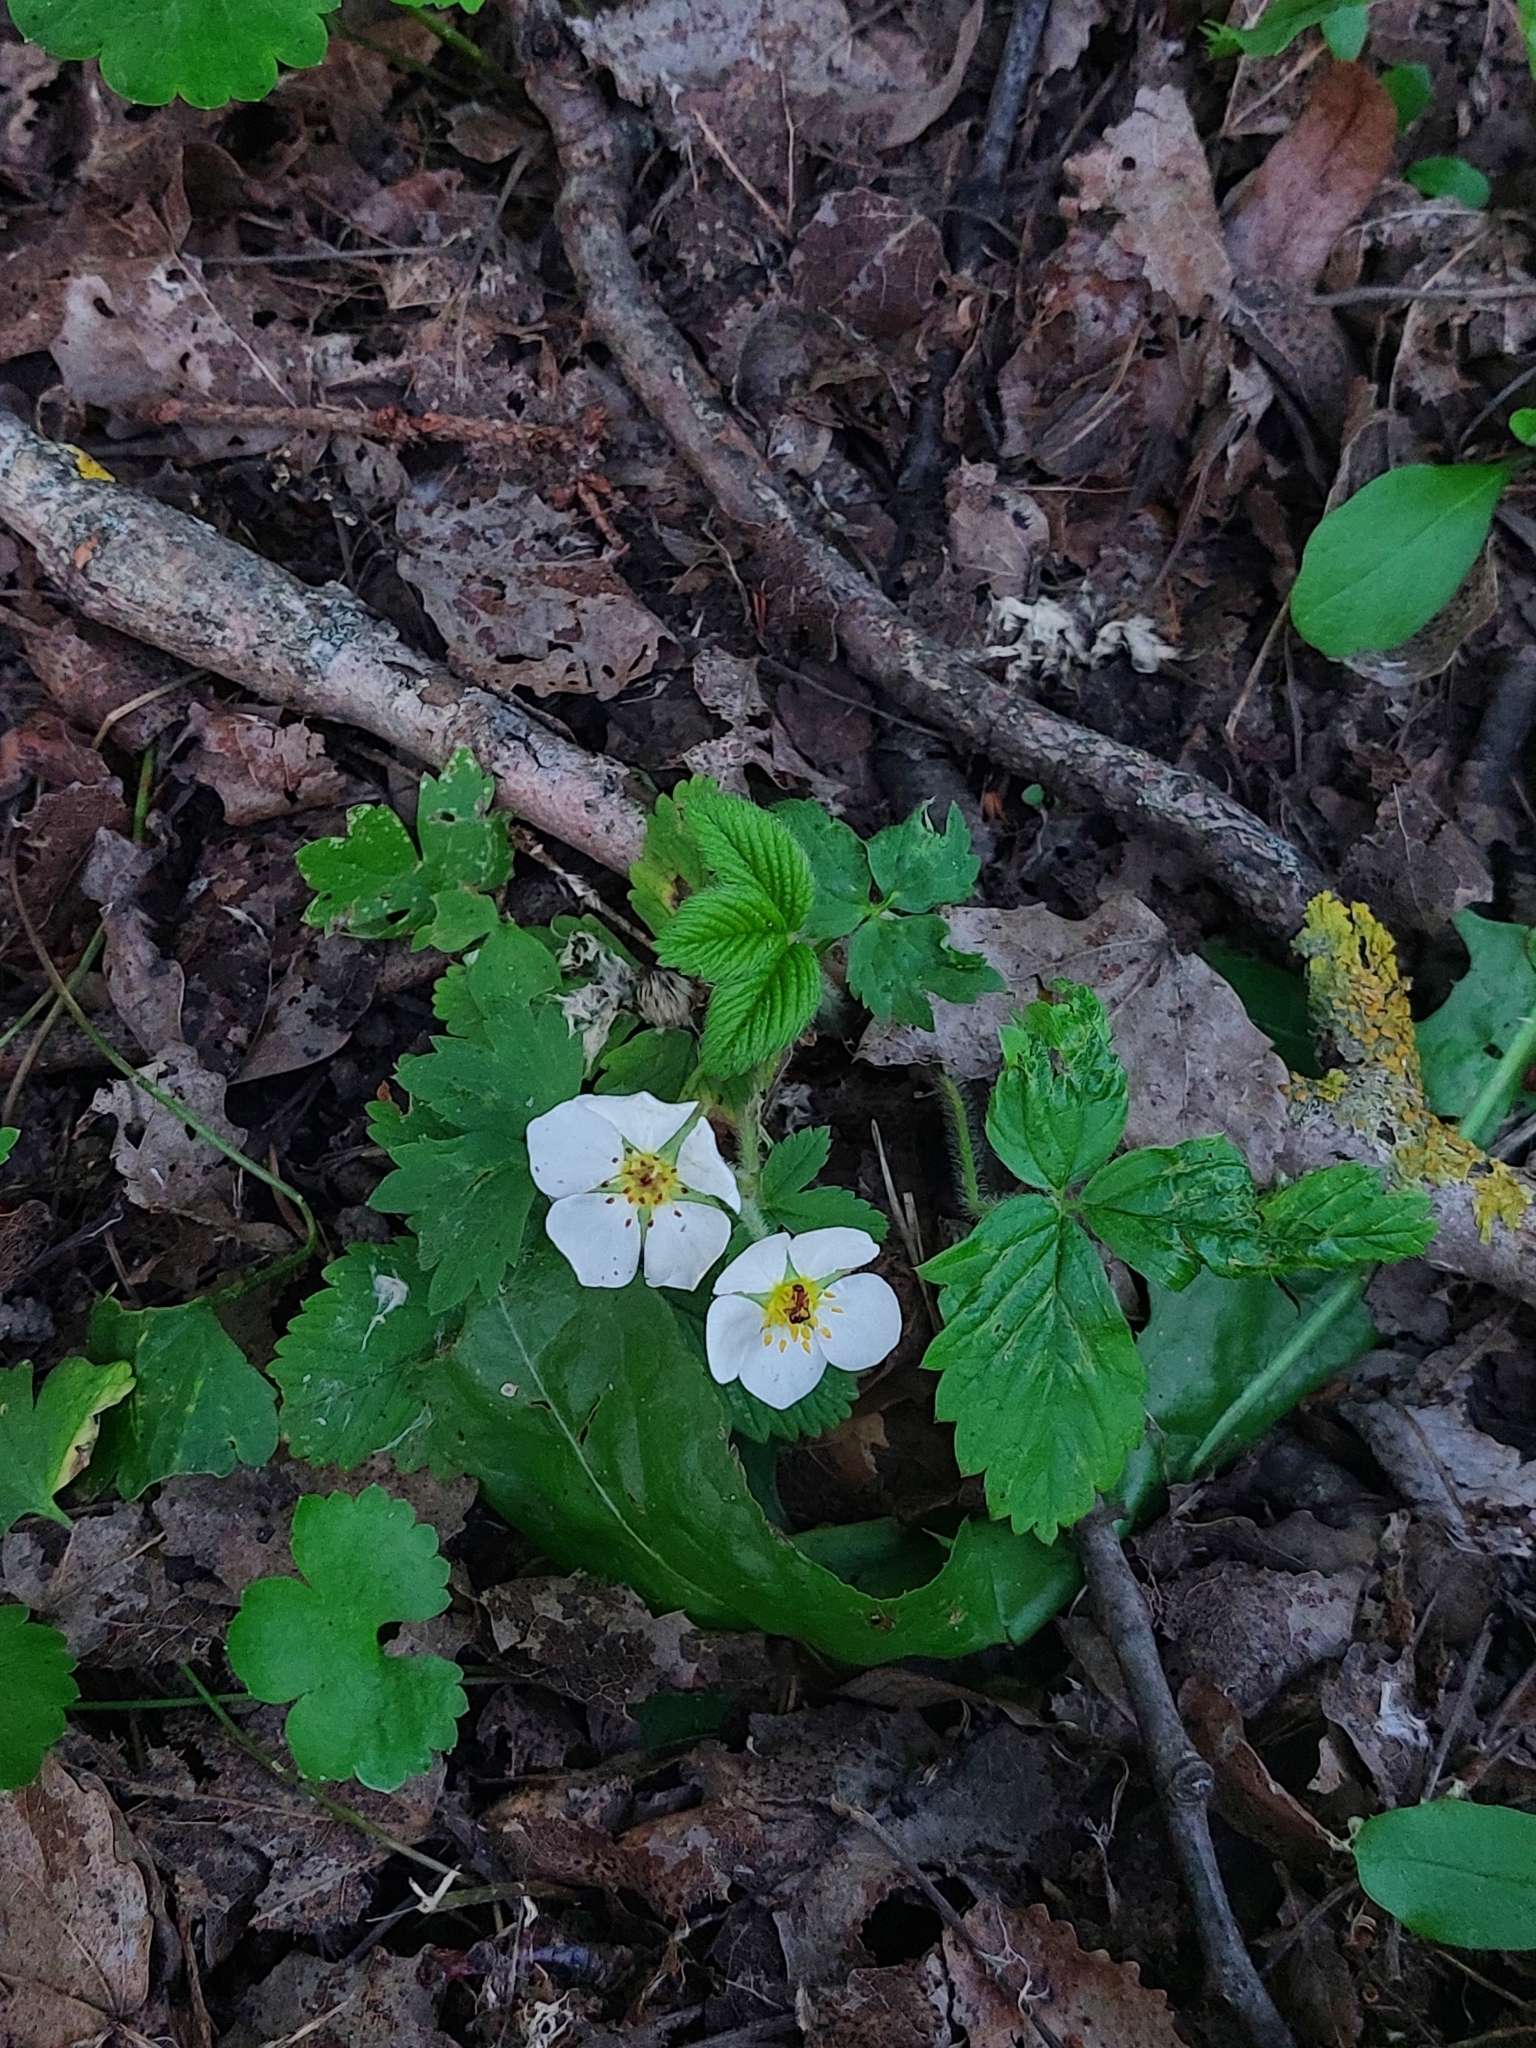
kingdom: Plantae
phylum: Tracheophyta
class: Magnoliopsida
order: Rosales
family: Rosaceae
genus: Fragaria
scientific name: Fragaria moschata
